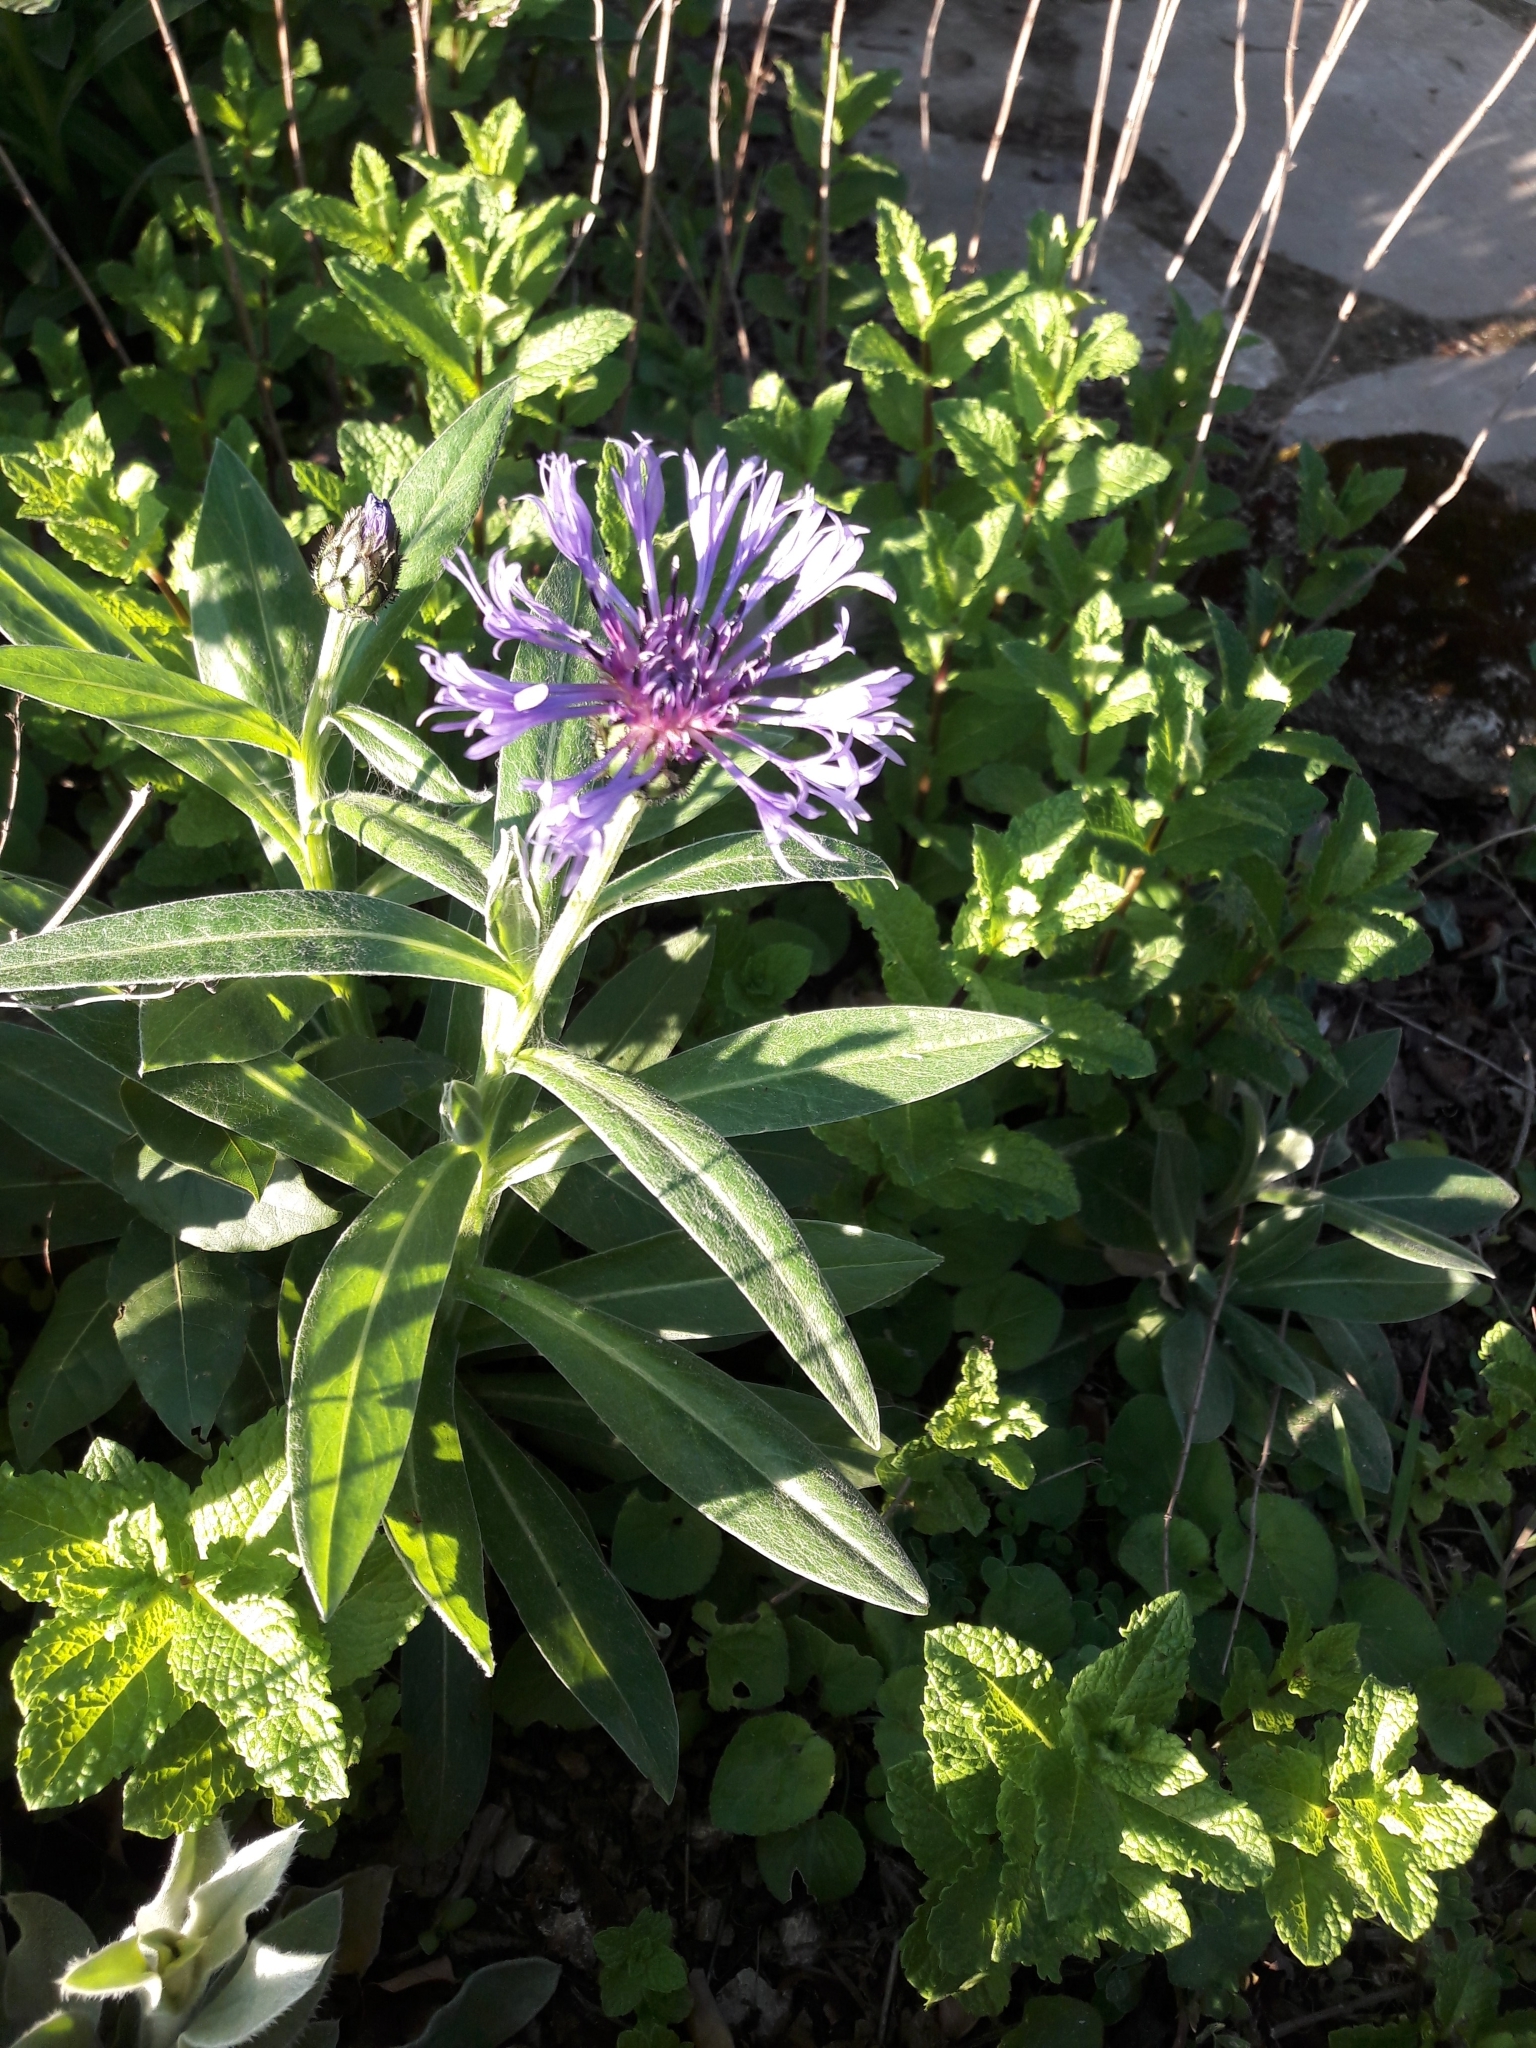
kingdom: Plantae
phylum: Tracheophyta
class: Magnoliopsida
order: Asterales
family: Asteraceae
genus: Centaurea
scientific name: Centaurea montana
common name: Perennial cornflower
